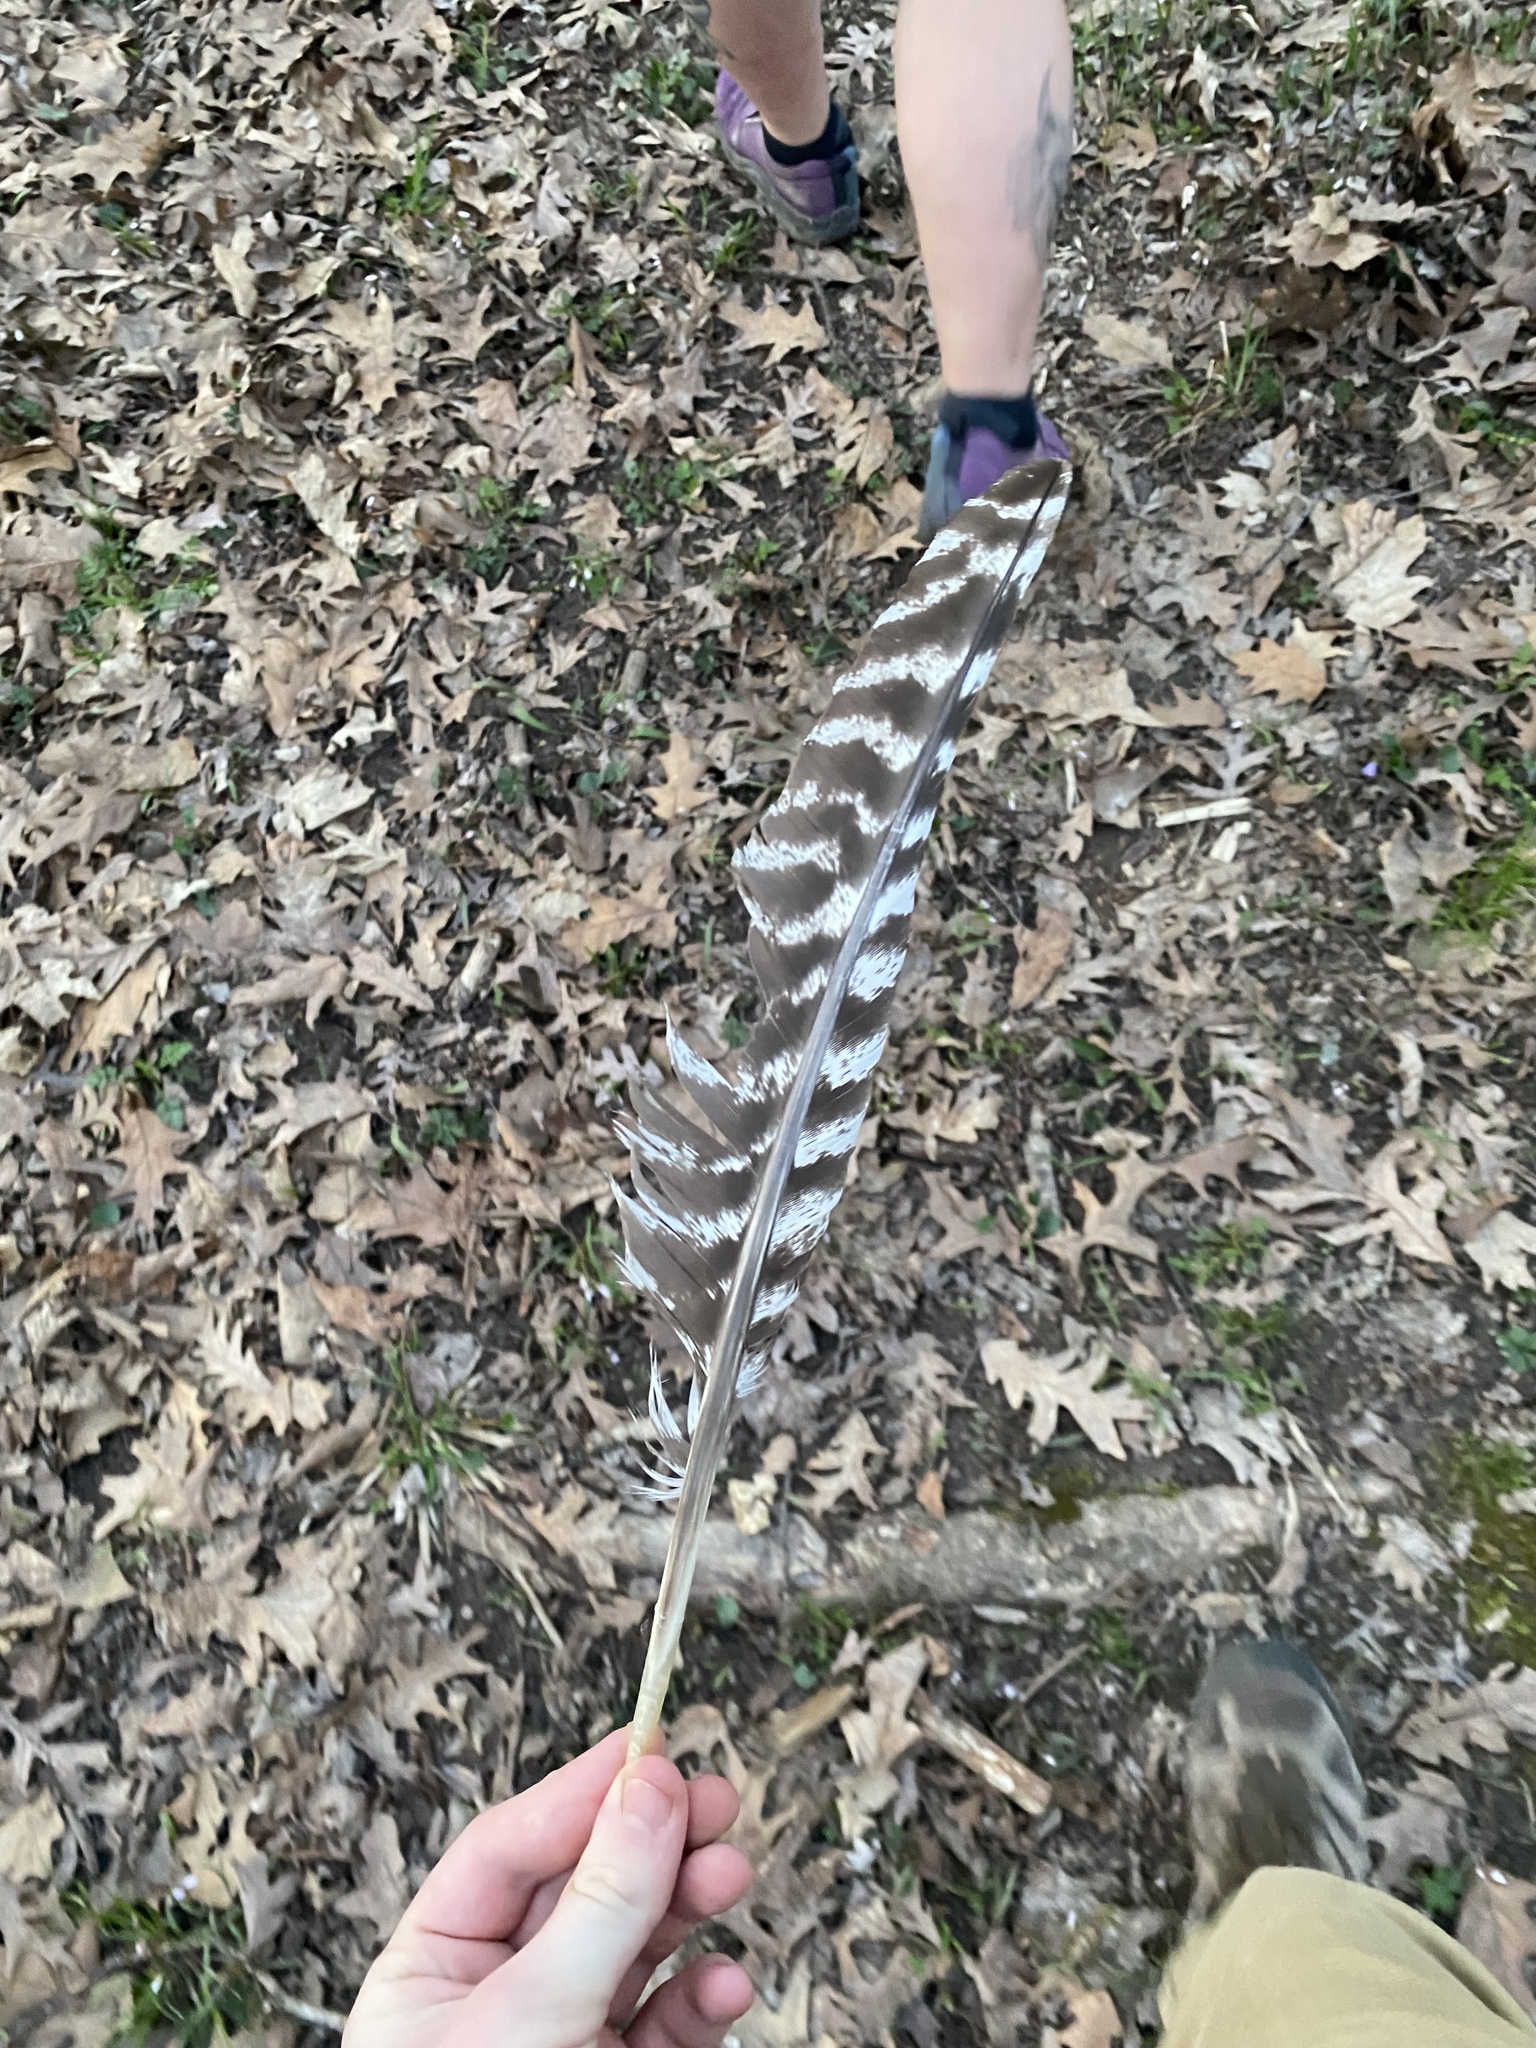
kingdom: Animalia
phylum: Chordata
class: Aves
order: Galliformes
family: Phasianidae
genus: Meleagris
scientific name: Meleagris gallopavo
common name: Wild turkey
